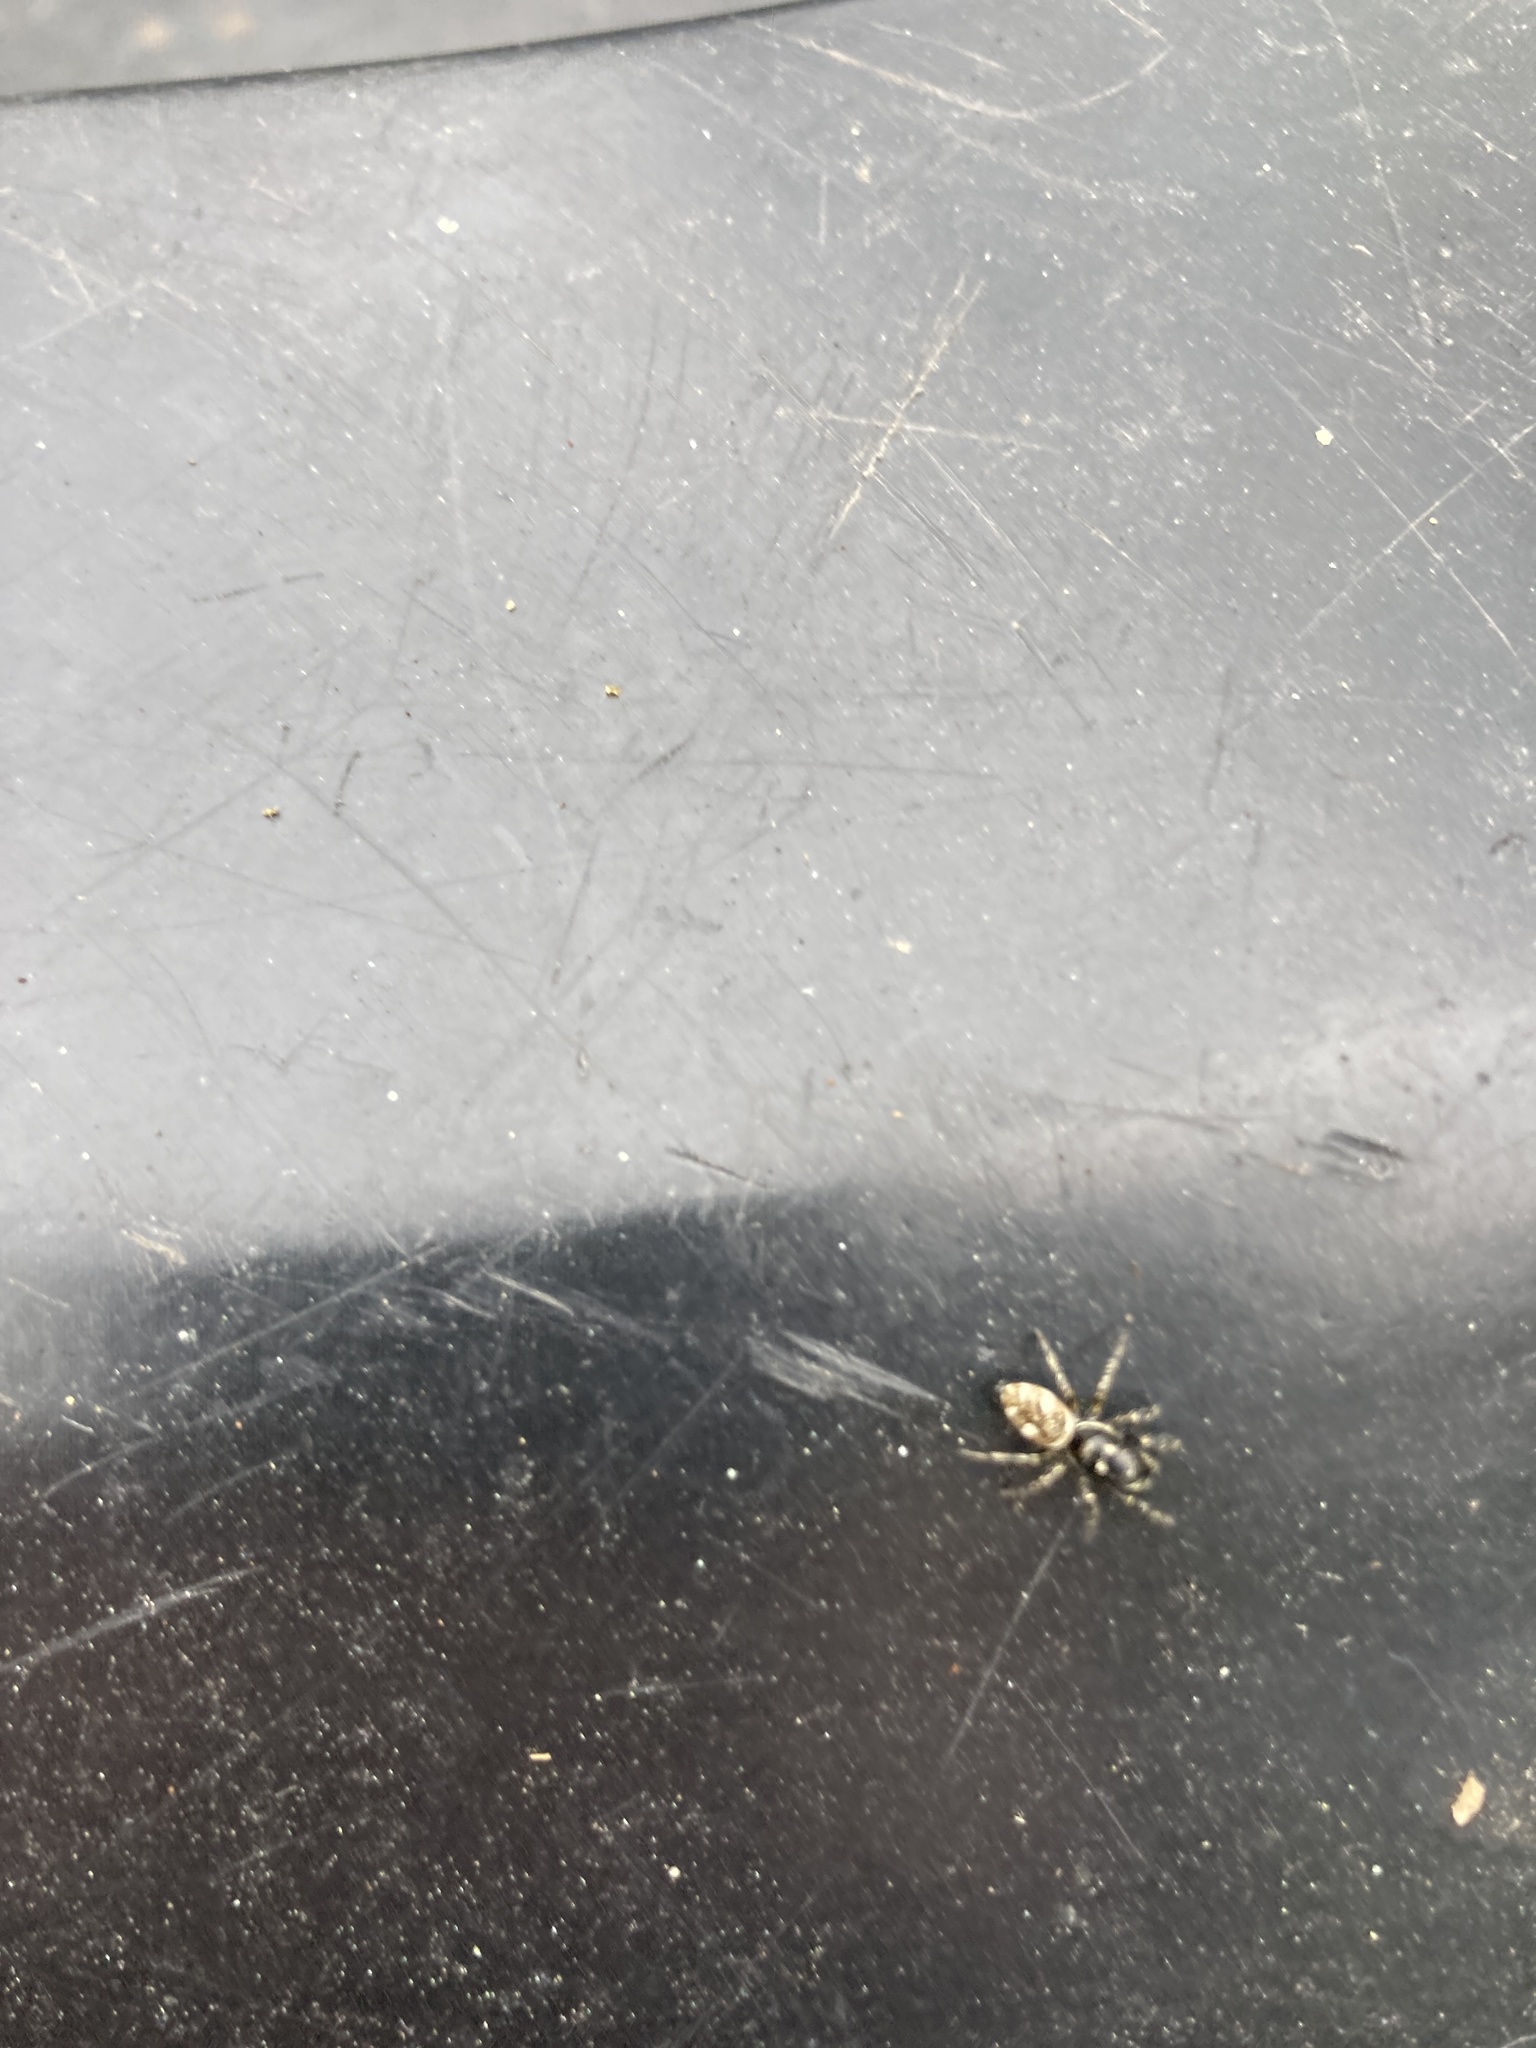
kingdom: Animalia
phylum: Arthropoda
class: Arachnida
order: Araneae
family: Salticidae
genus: Salticus
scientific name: Salticus scenicus
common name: Zebra jumper
